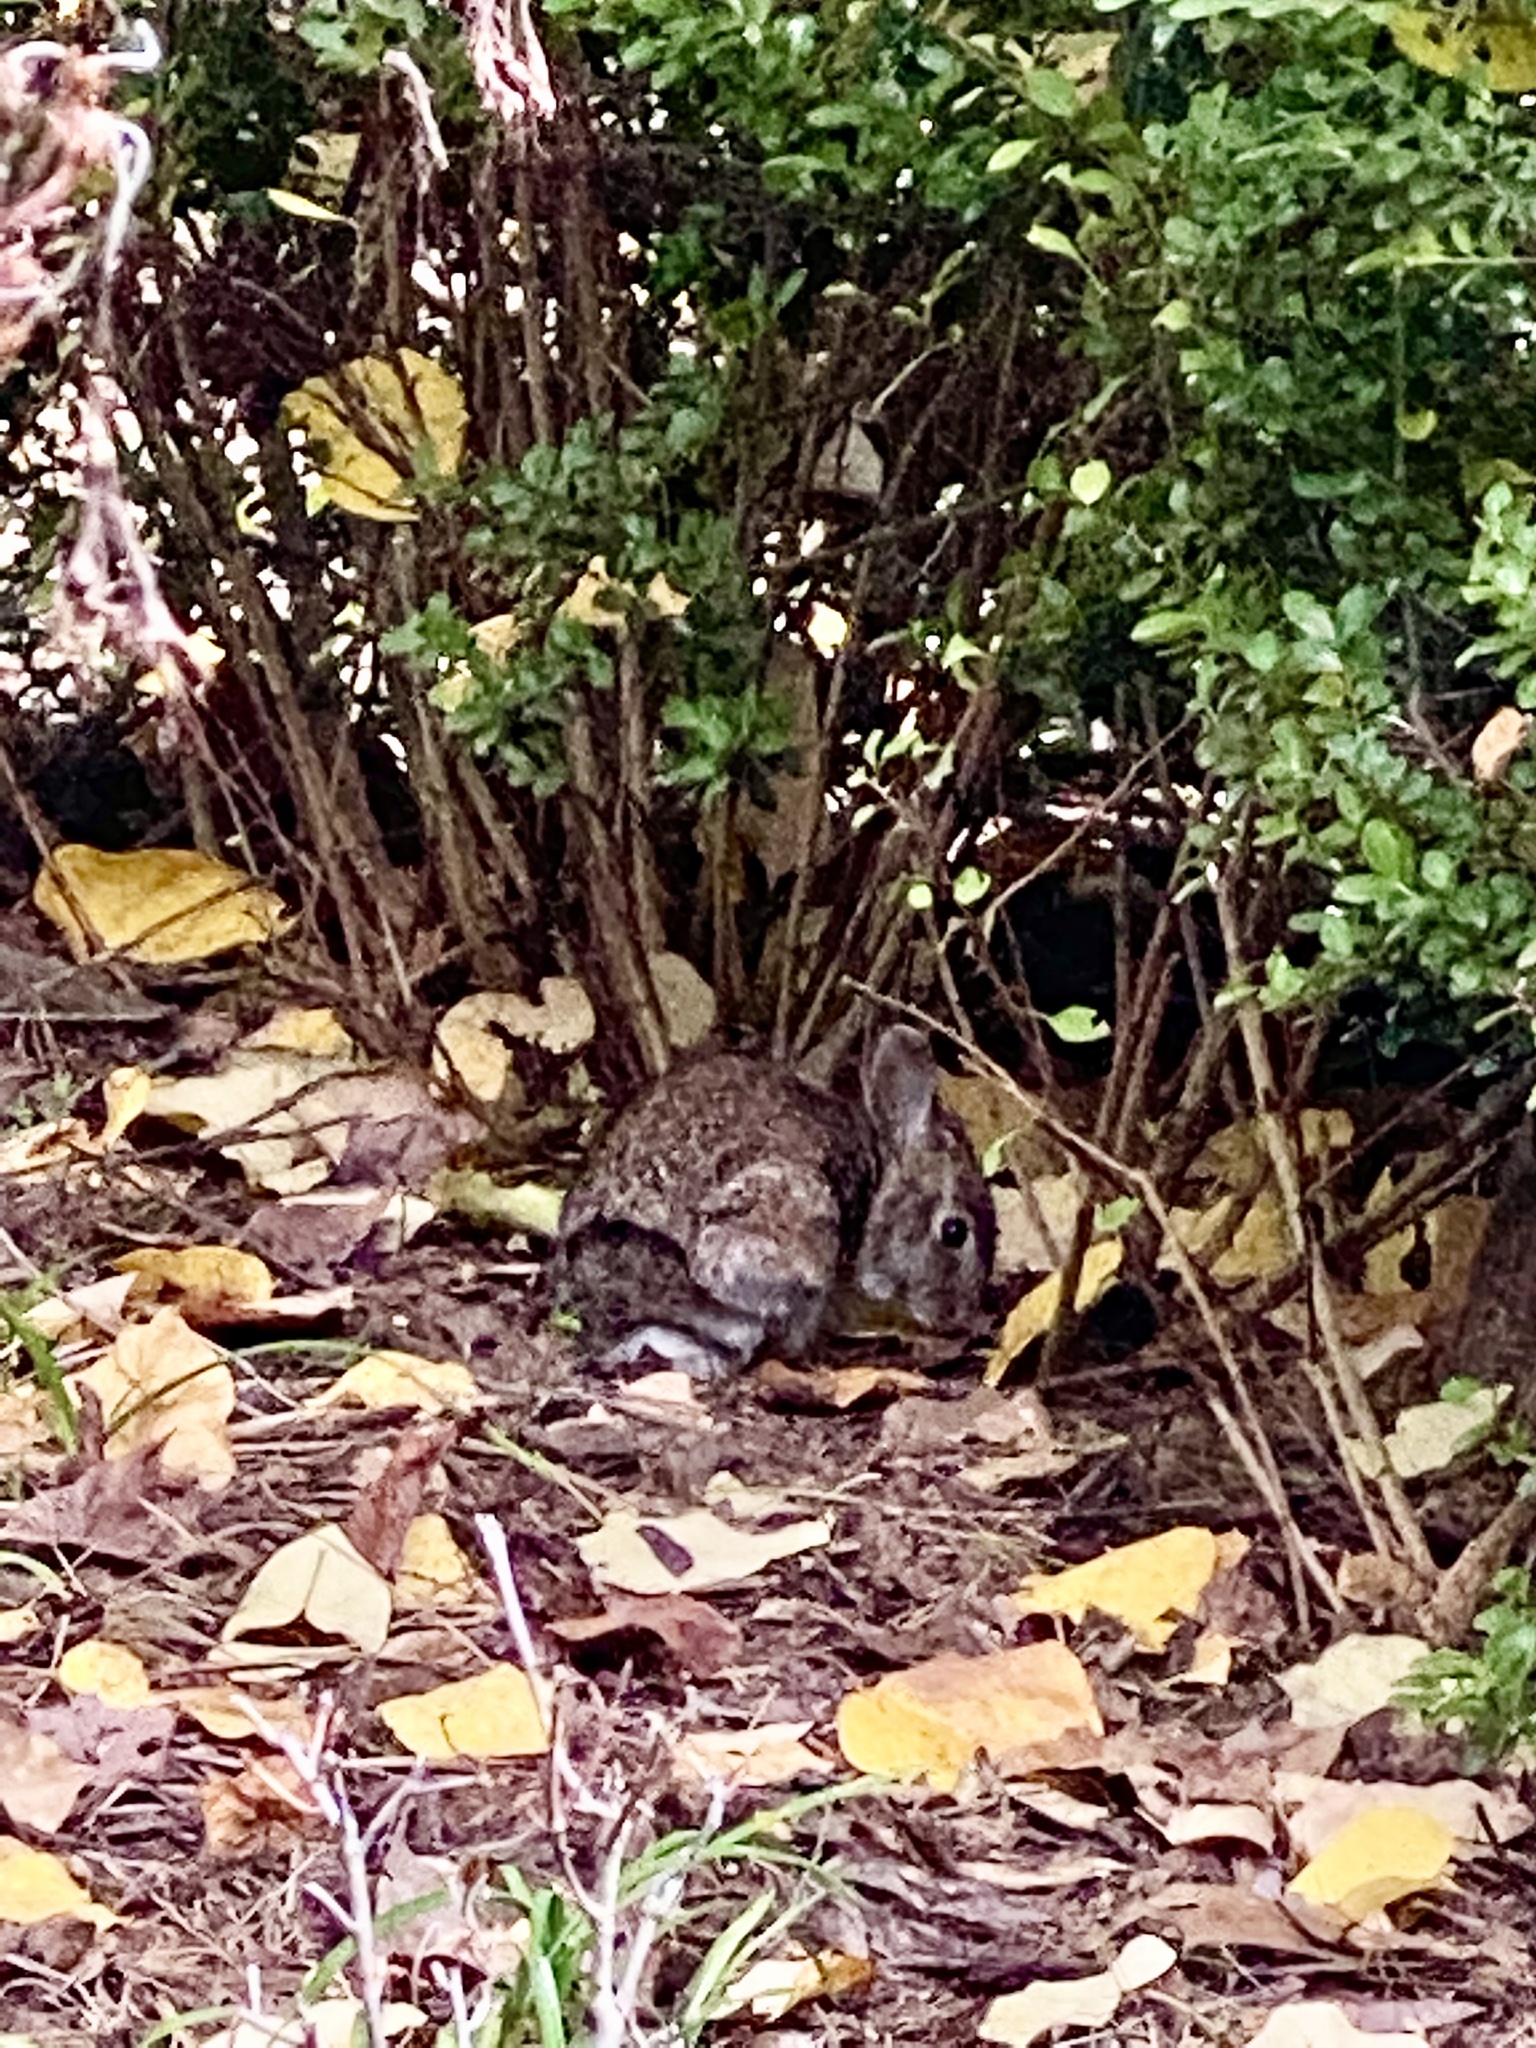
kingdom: Animalia
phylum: Chordata
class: Mammalia
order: Lagomorpha
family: Leporidae
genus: Sylvilagus
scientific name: Sylvilagus floridanus
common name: Eastern cottontail
